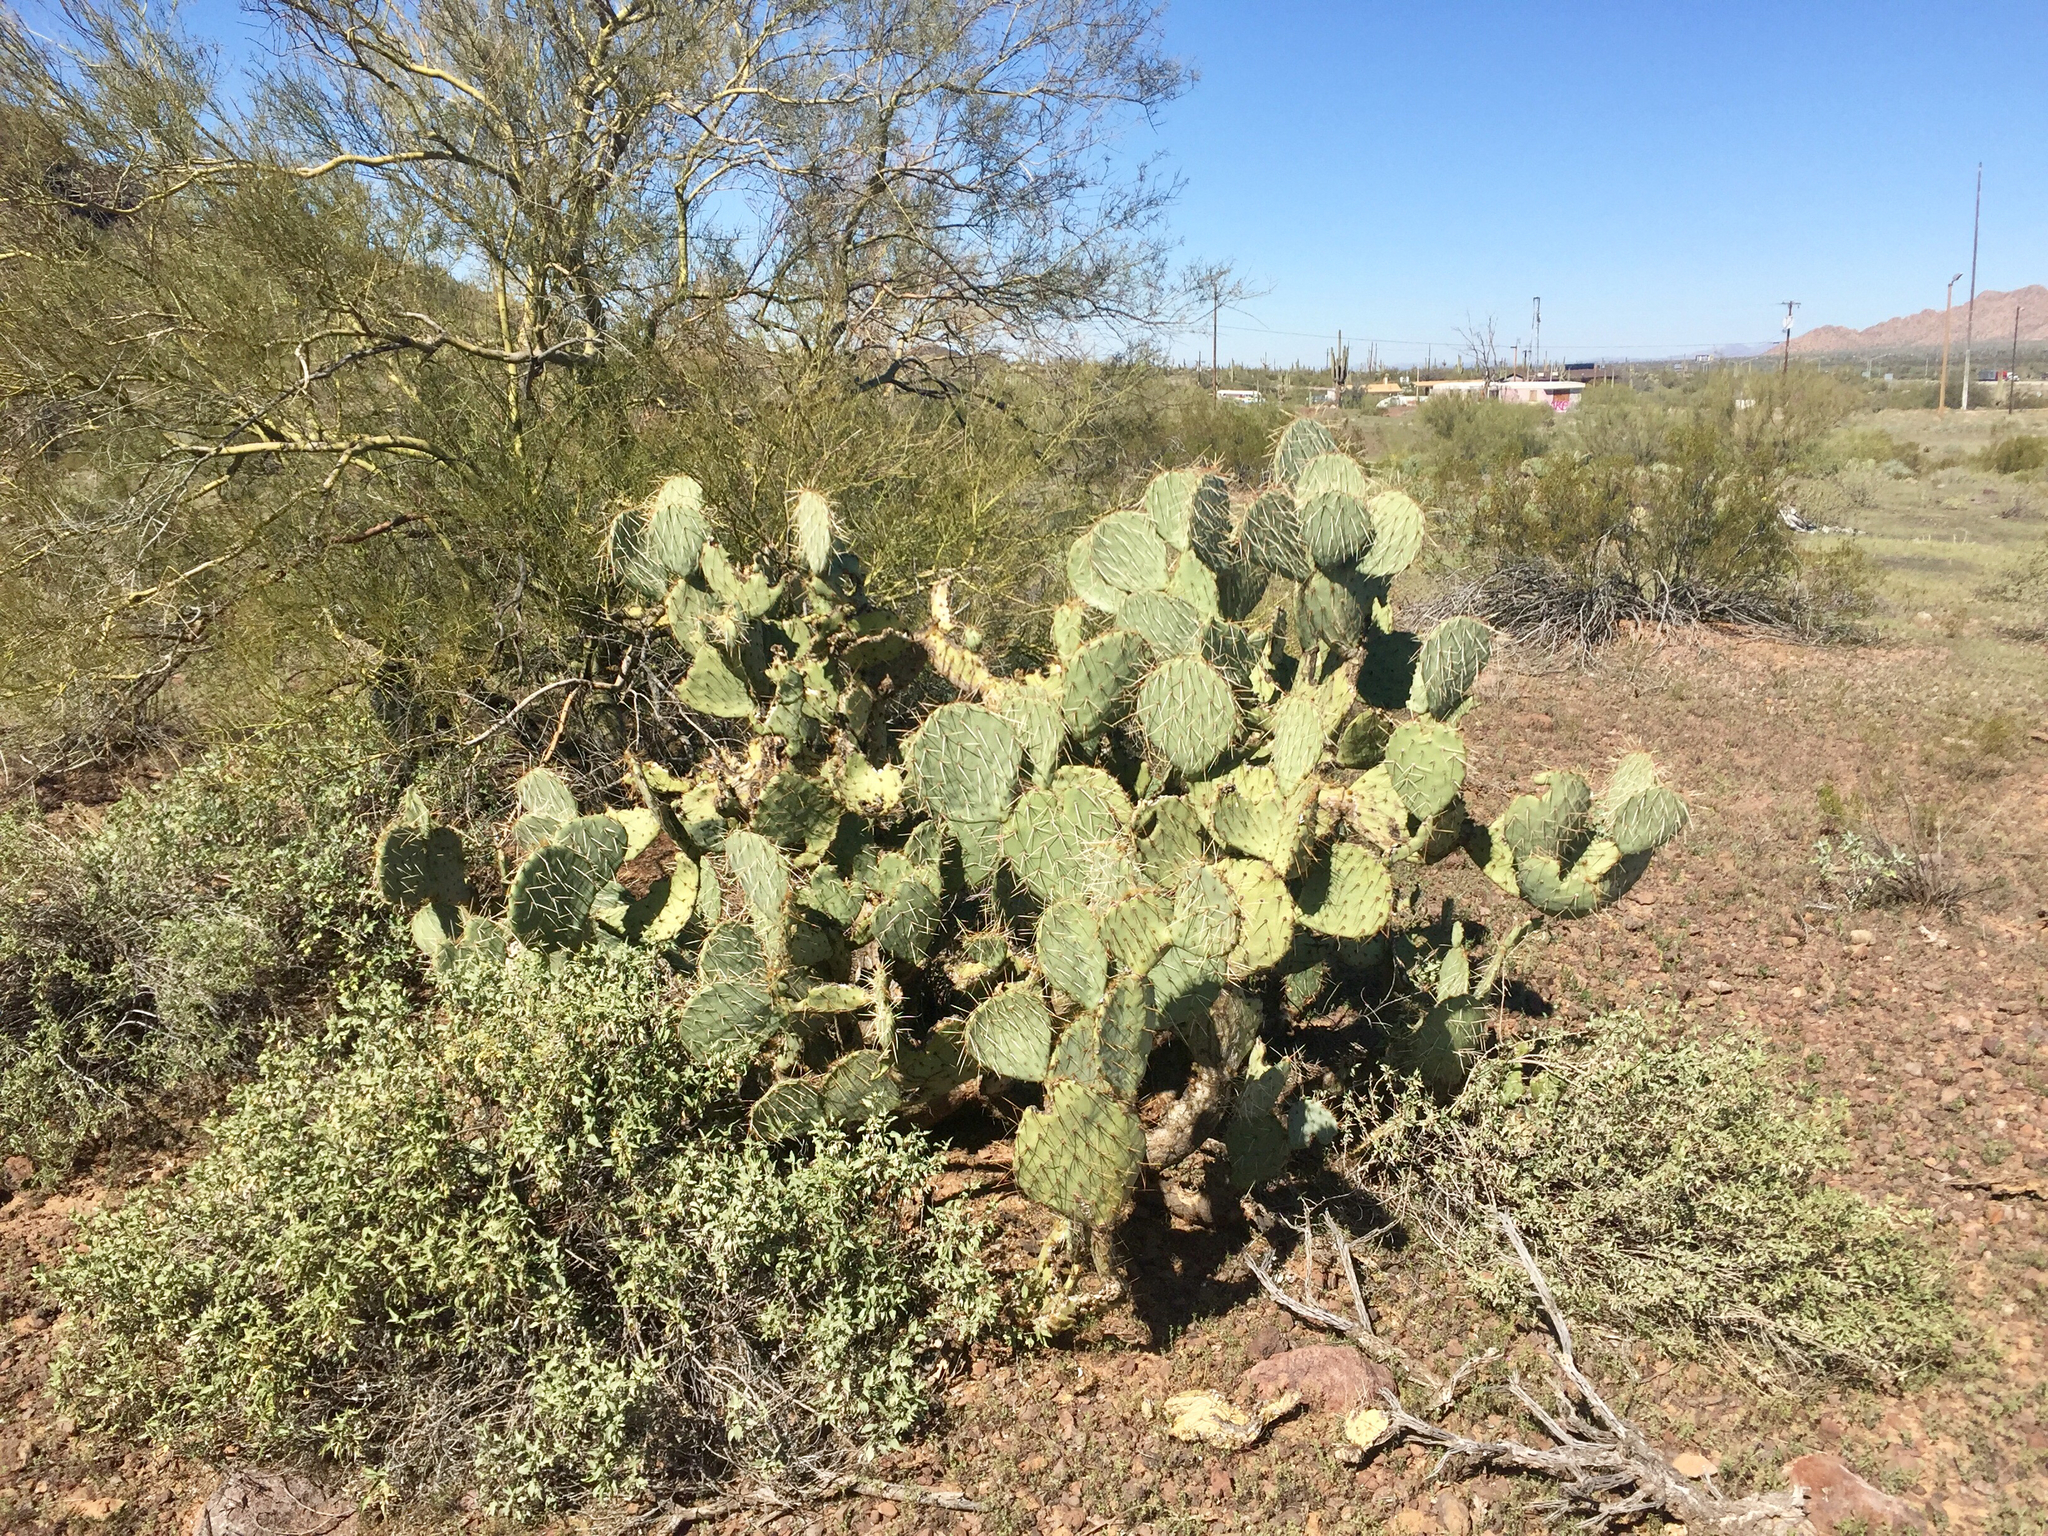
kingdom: Plantae
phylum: Tracheophyta
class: Magnoliopsida
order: Caryophyllales
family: Cactaceae
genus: Opuntia
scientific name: Opuntia engelmannii
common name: Cactus-apple
